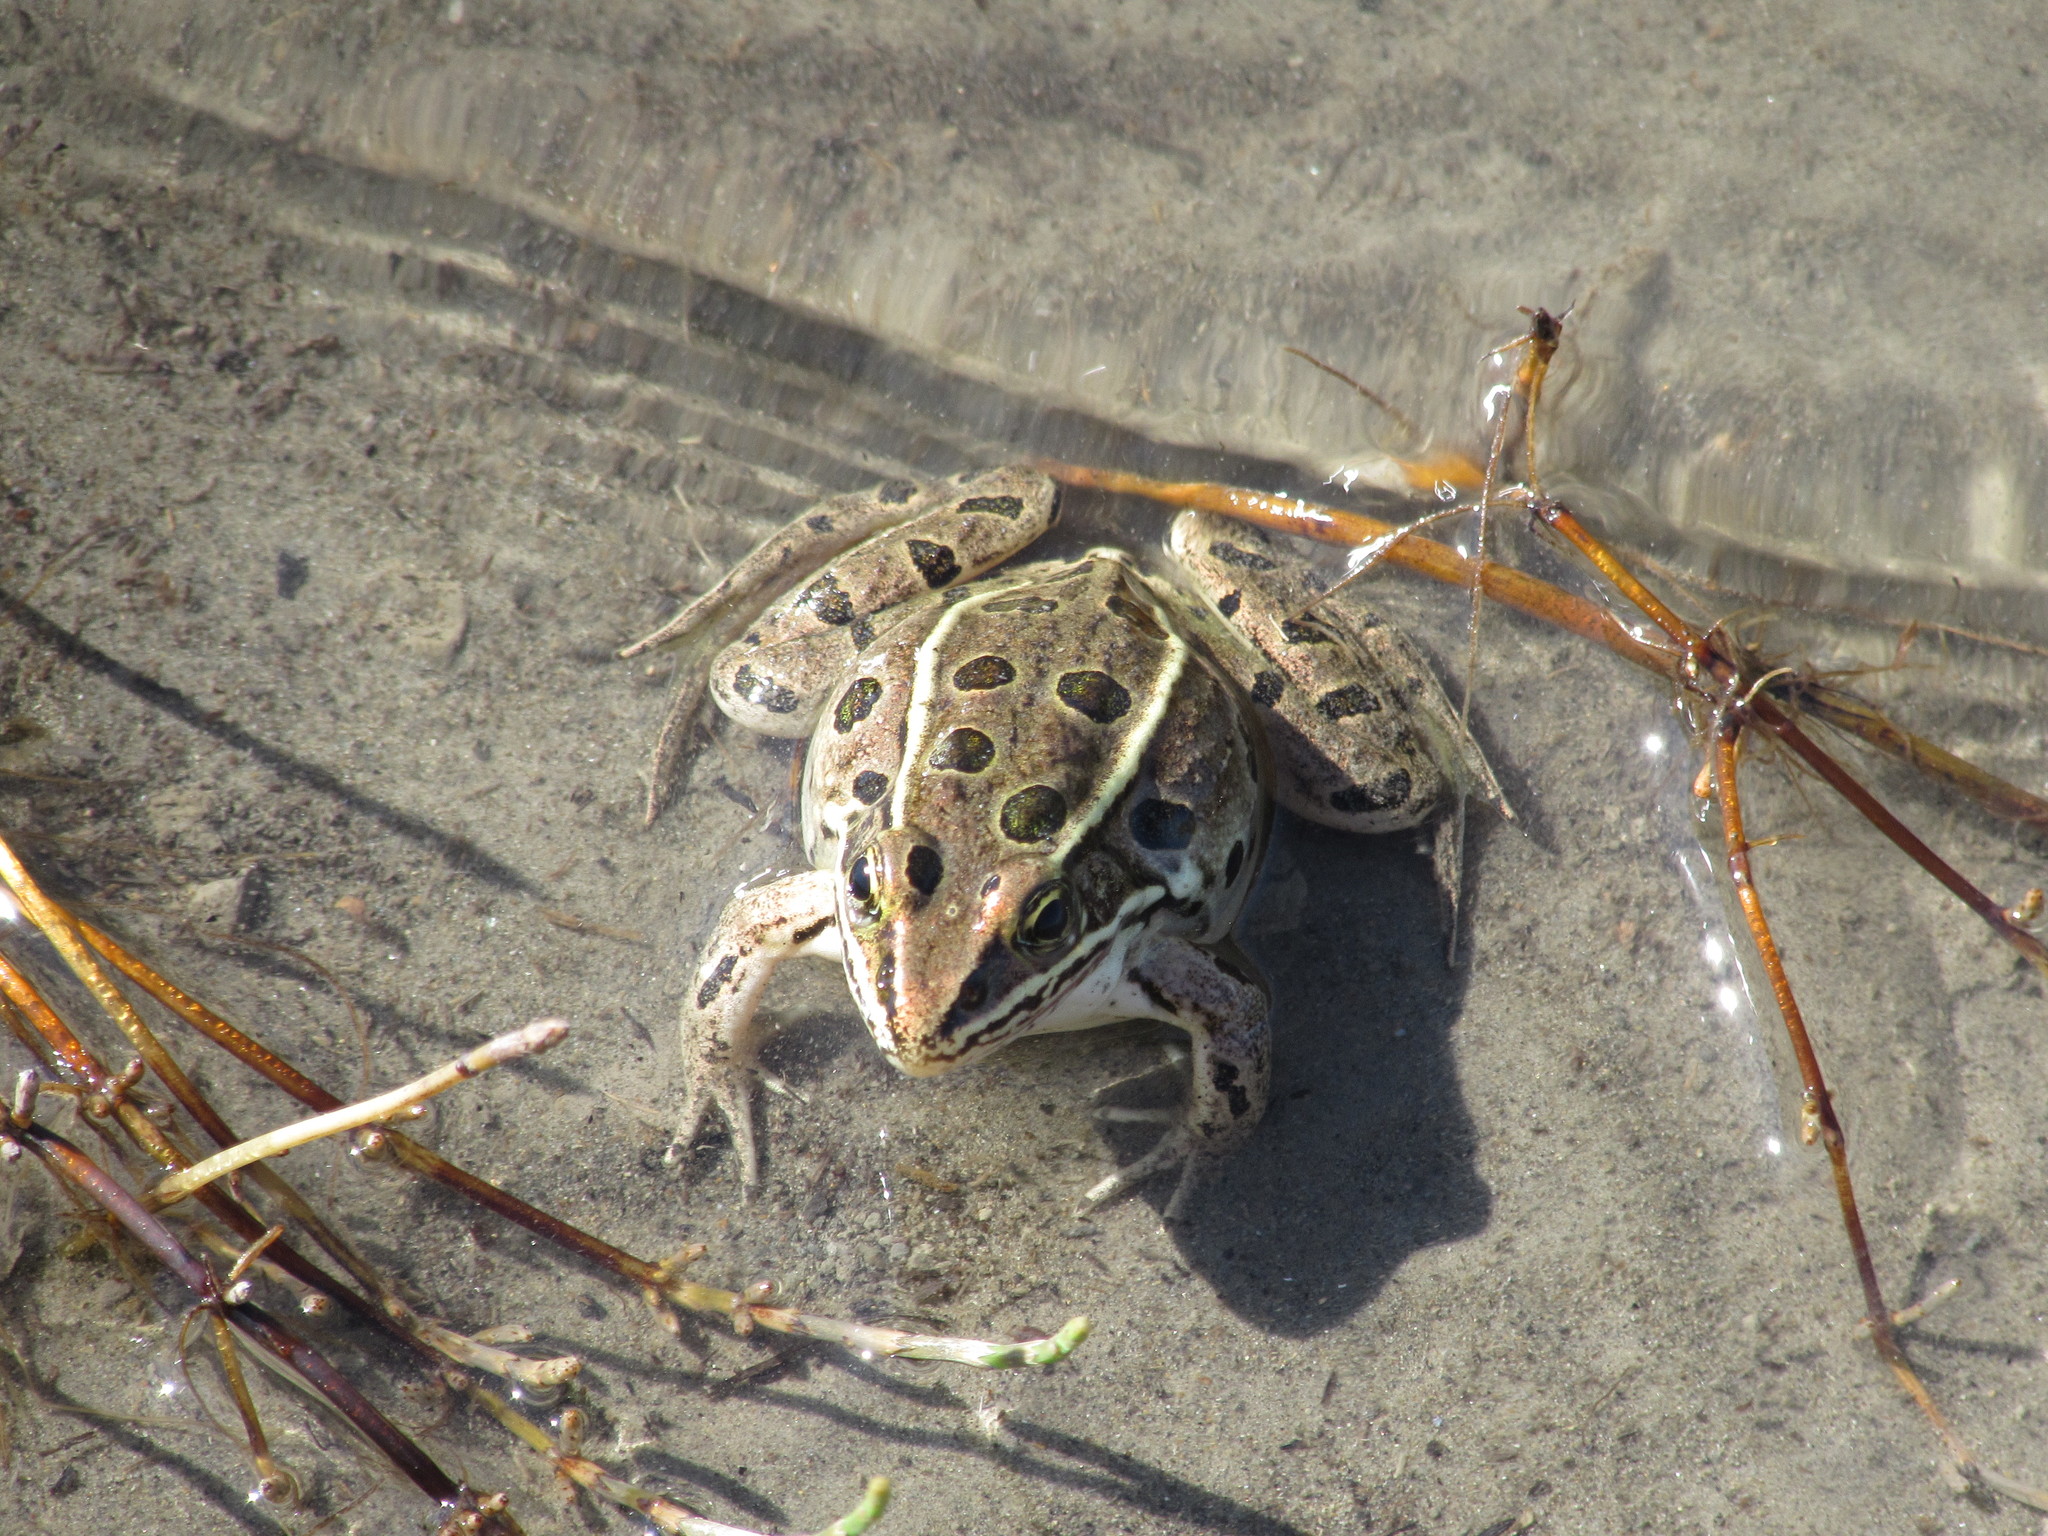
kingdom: Animalia
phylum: Chordata
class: Amphibia
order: Anura
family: Ranidae
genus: Lithobates
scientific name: Lithobates pipiens
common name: Northern leopard frog
